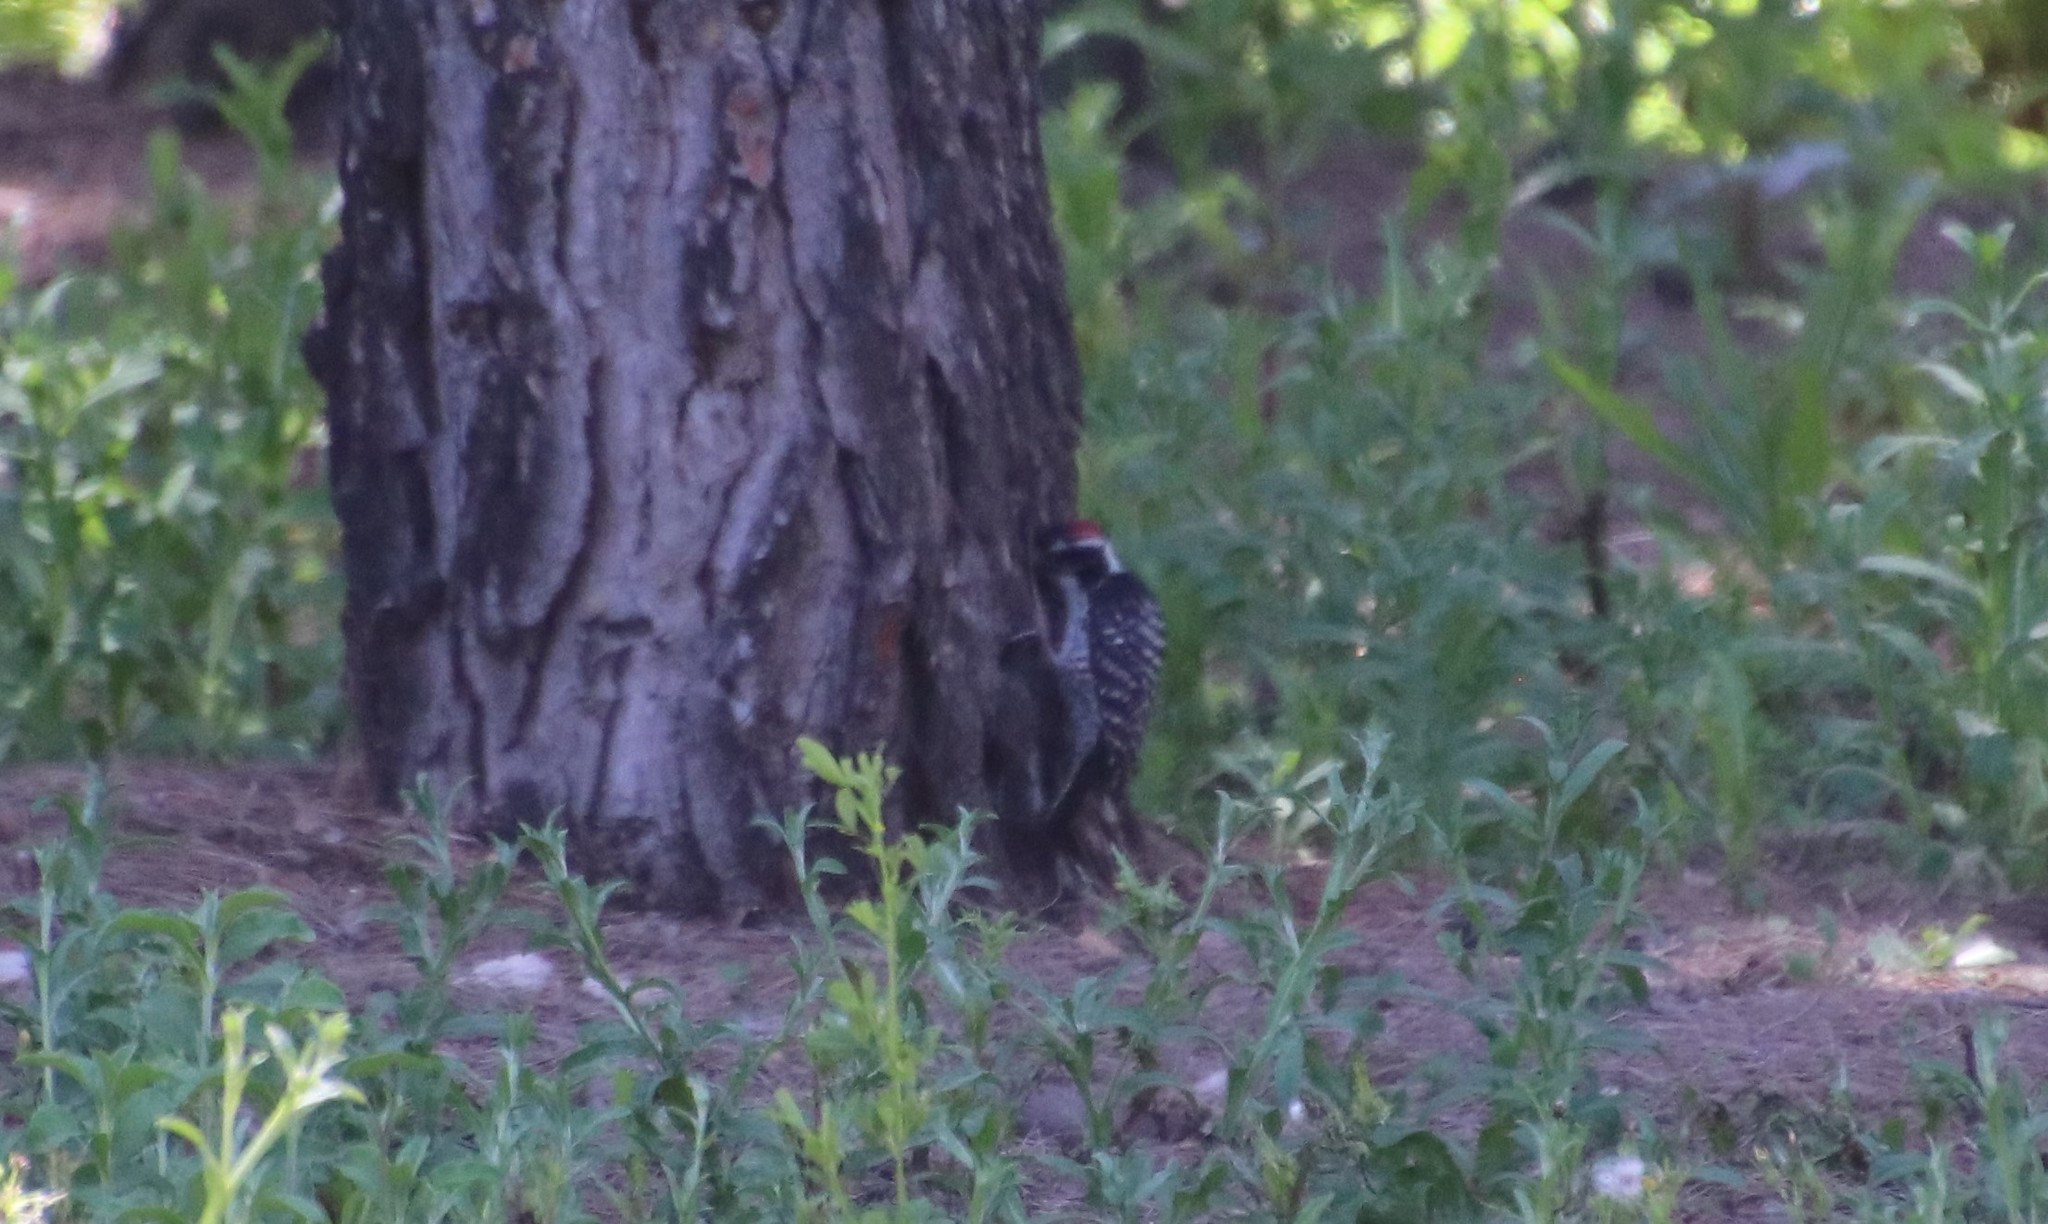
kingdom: Animalia
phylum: Chordata
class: Aves
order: Piciformes
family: Picidae
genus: Dryobates
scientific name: Dryobates nuttallii
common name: Nuttall's woodpecker
